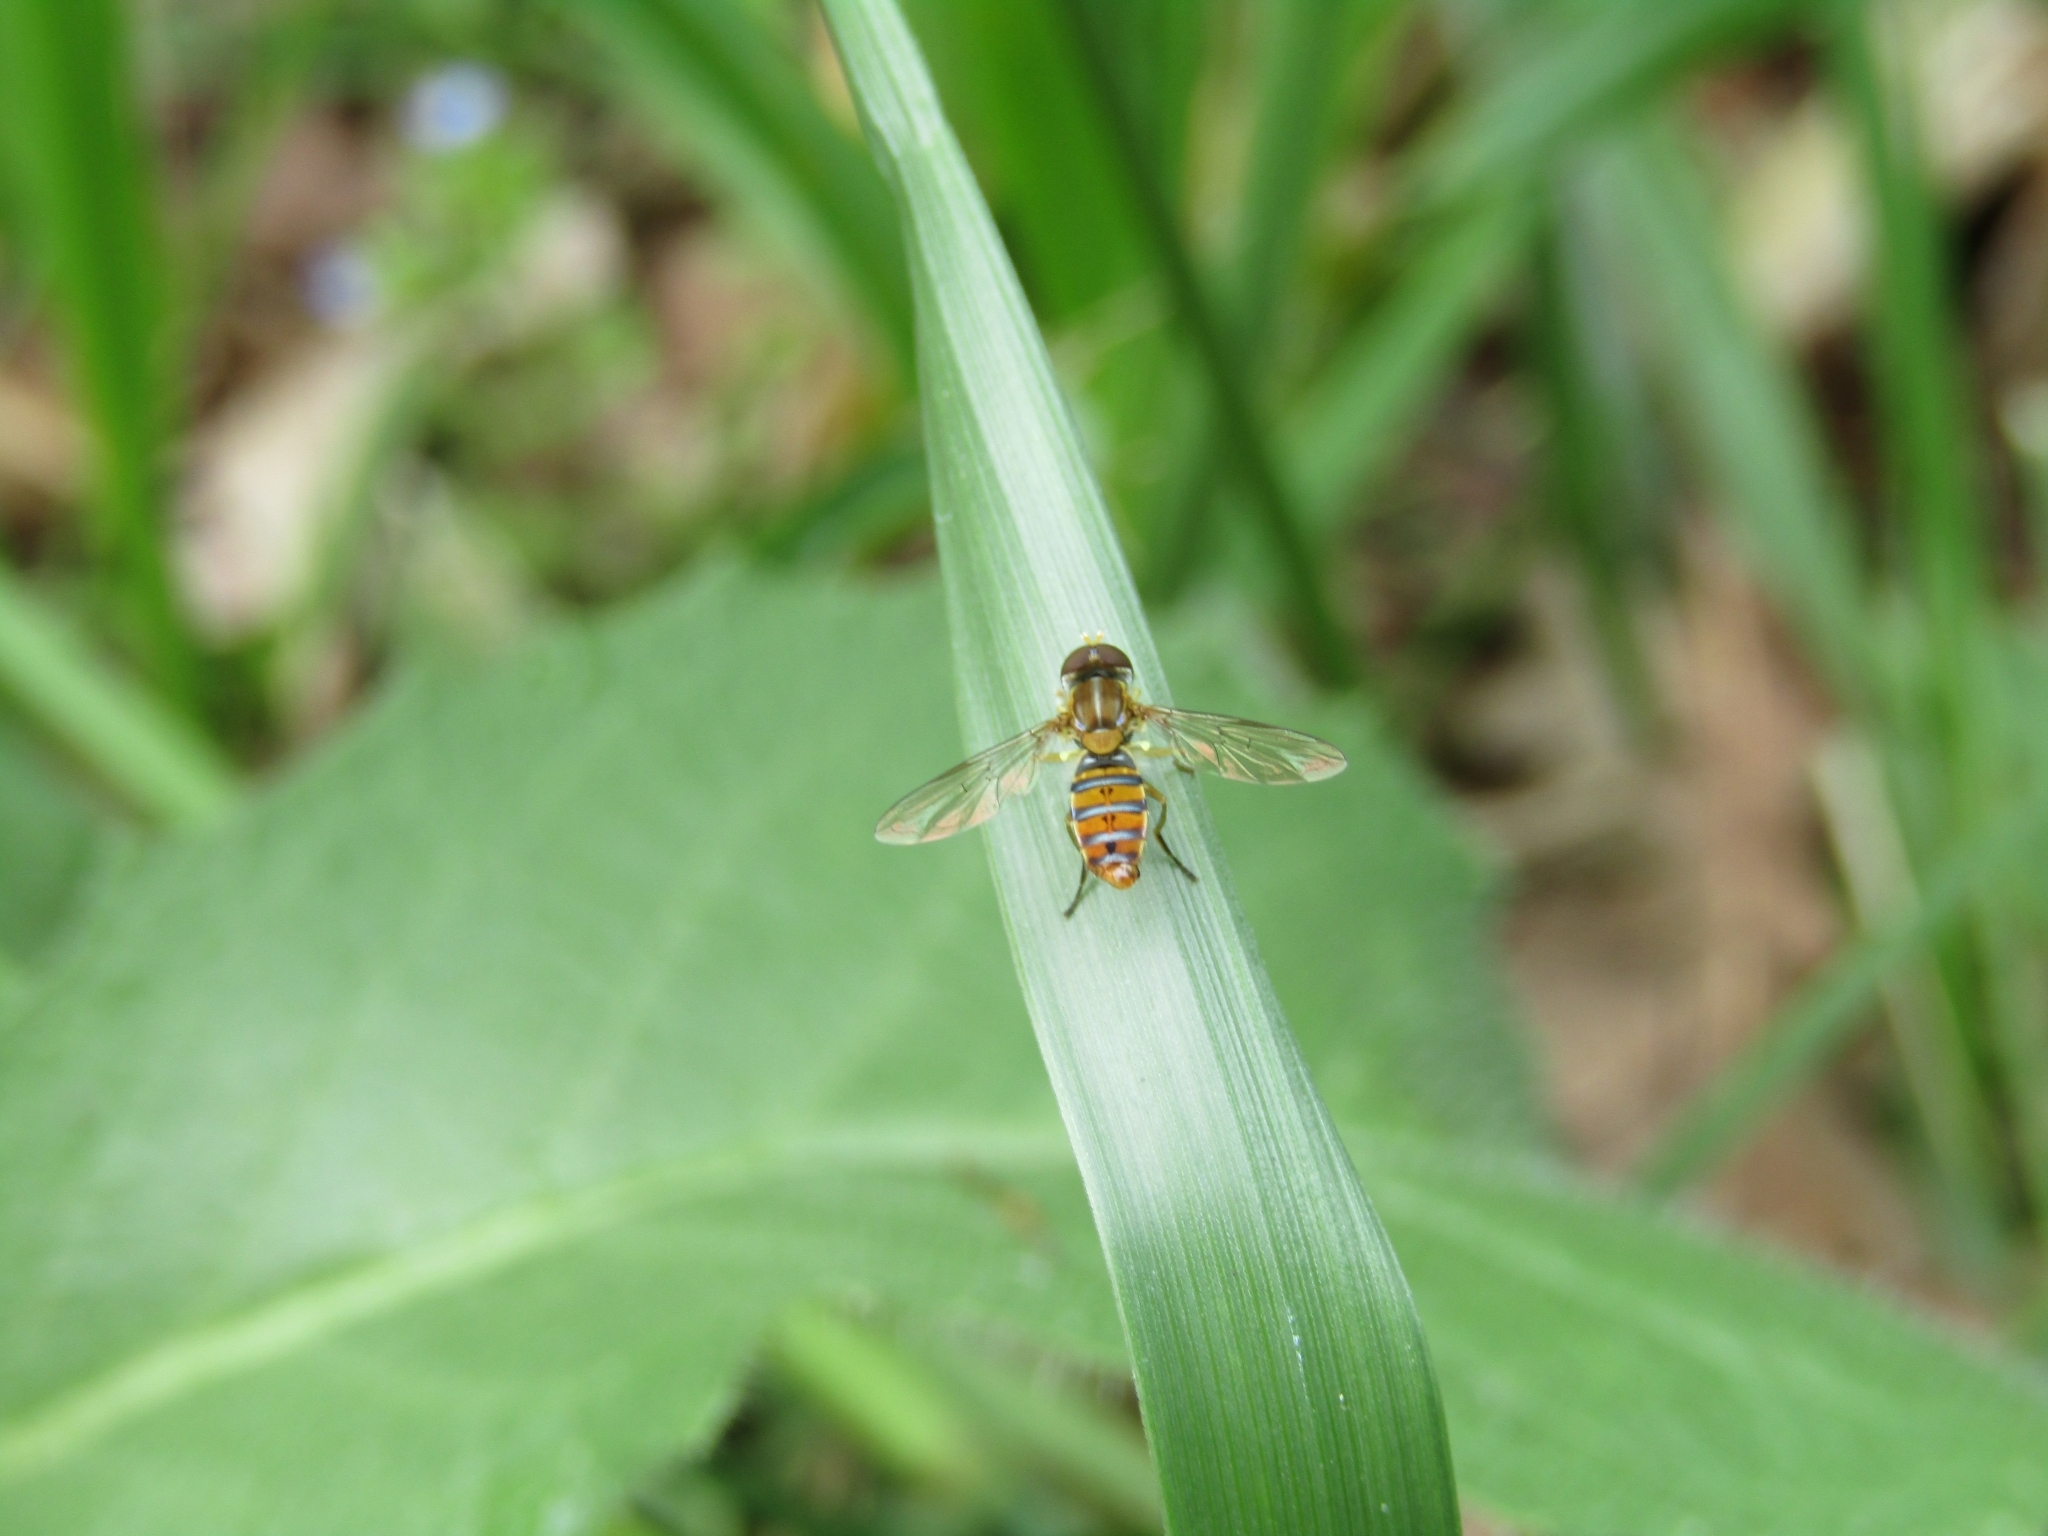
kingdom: Animalia
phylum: Arthropoda
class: Insecta
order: Diptera
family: Syrphidae
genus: Toxomerus
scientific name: Toxomerus
